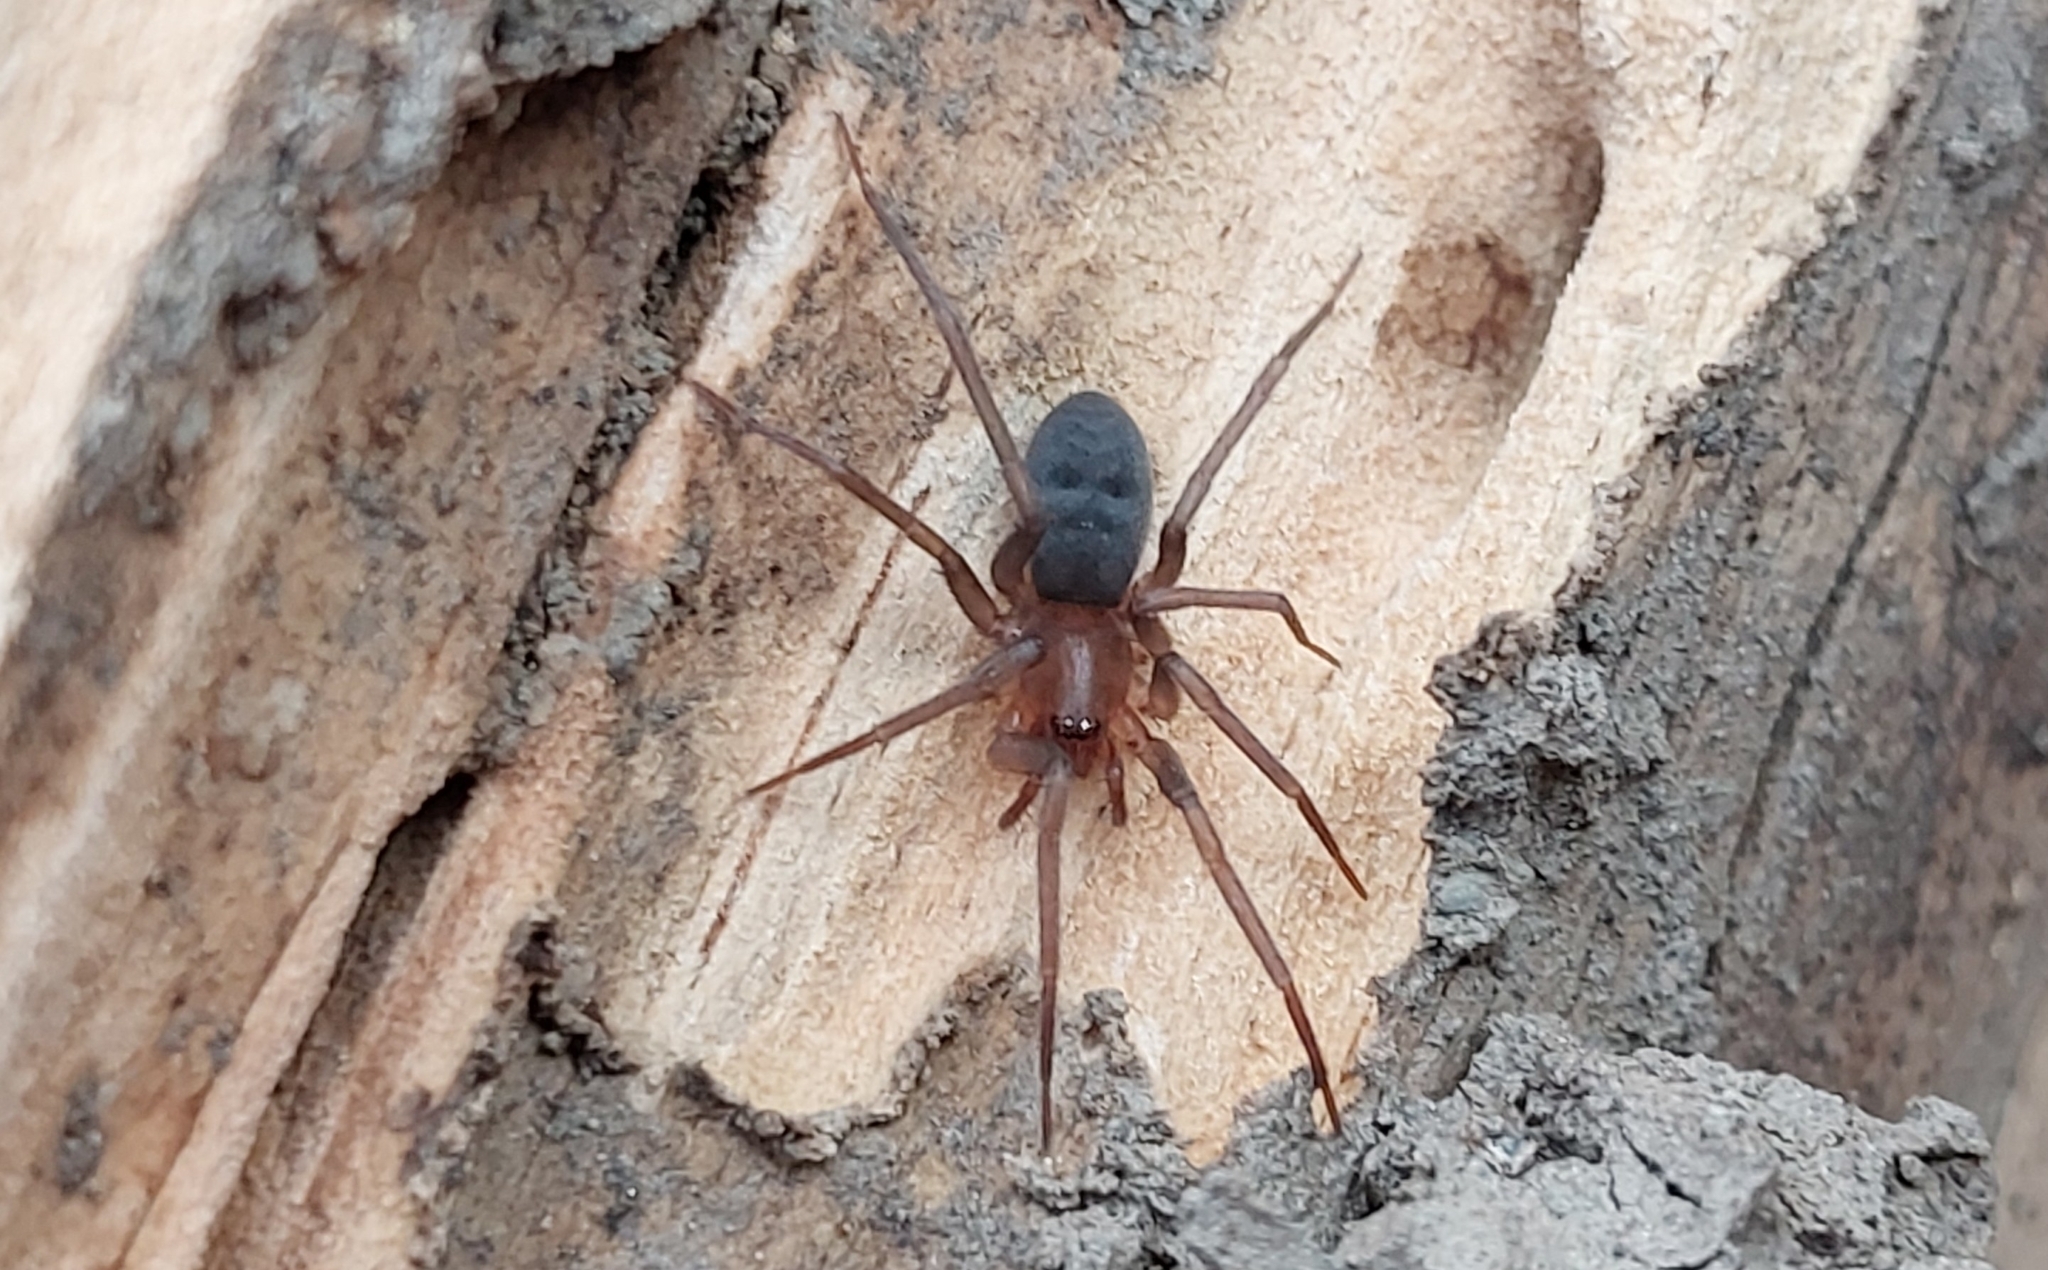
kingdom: Animalia
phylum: Arthropoda
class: Arachnida
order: Araneae
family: Liocranidae
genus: Mesiotelus
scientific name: Mesiotelus
